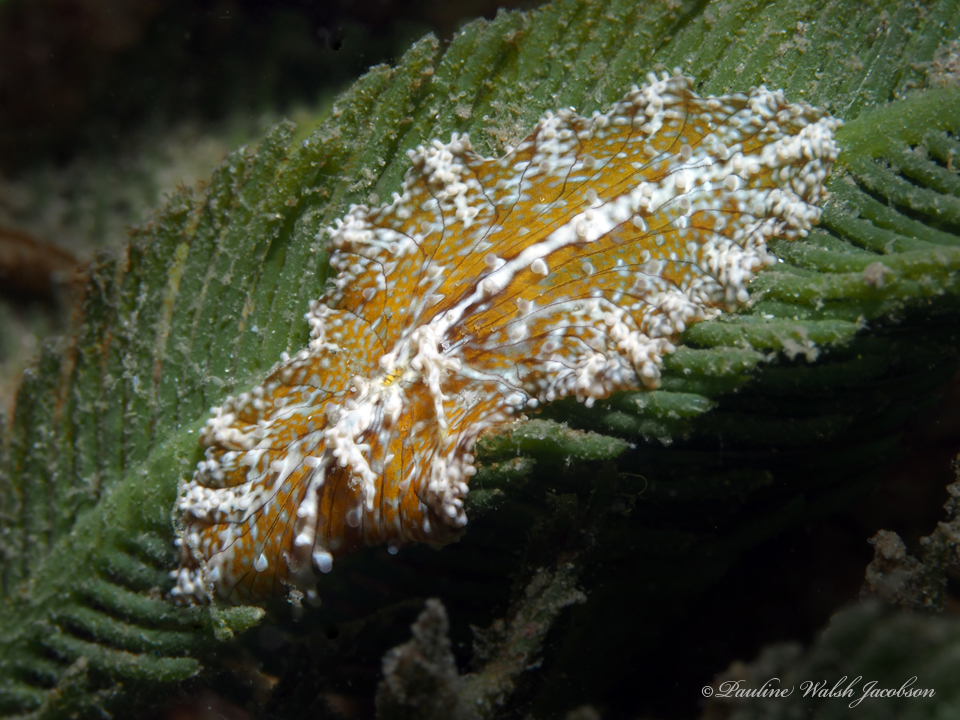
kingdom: Animalia
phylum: Cnidaria
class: Anthozoa
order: Actiniaria
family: Boloceroididae
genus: Bunodeopsis
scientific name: Bunodeopsis globulifera
